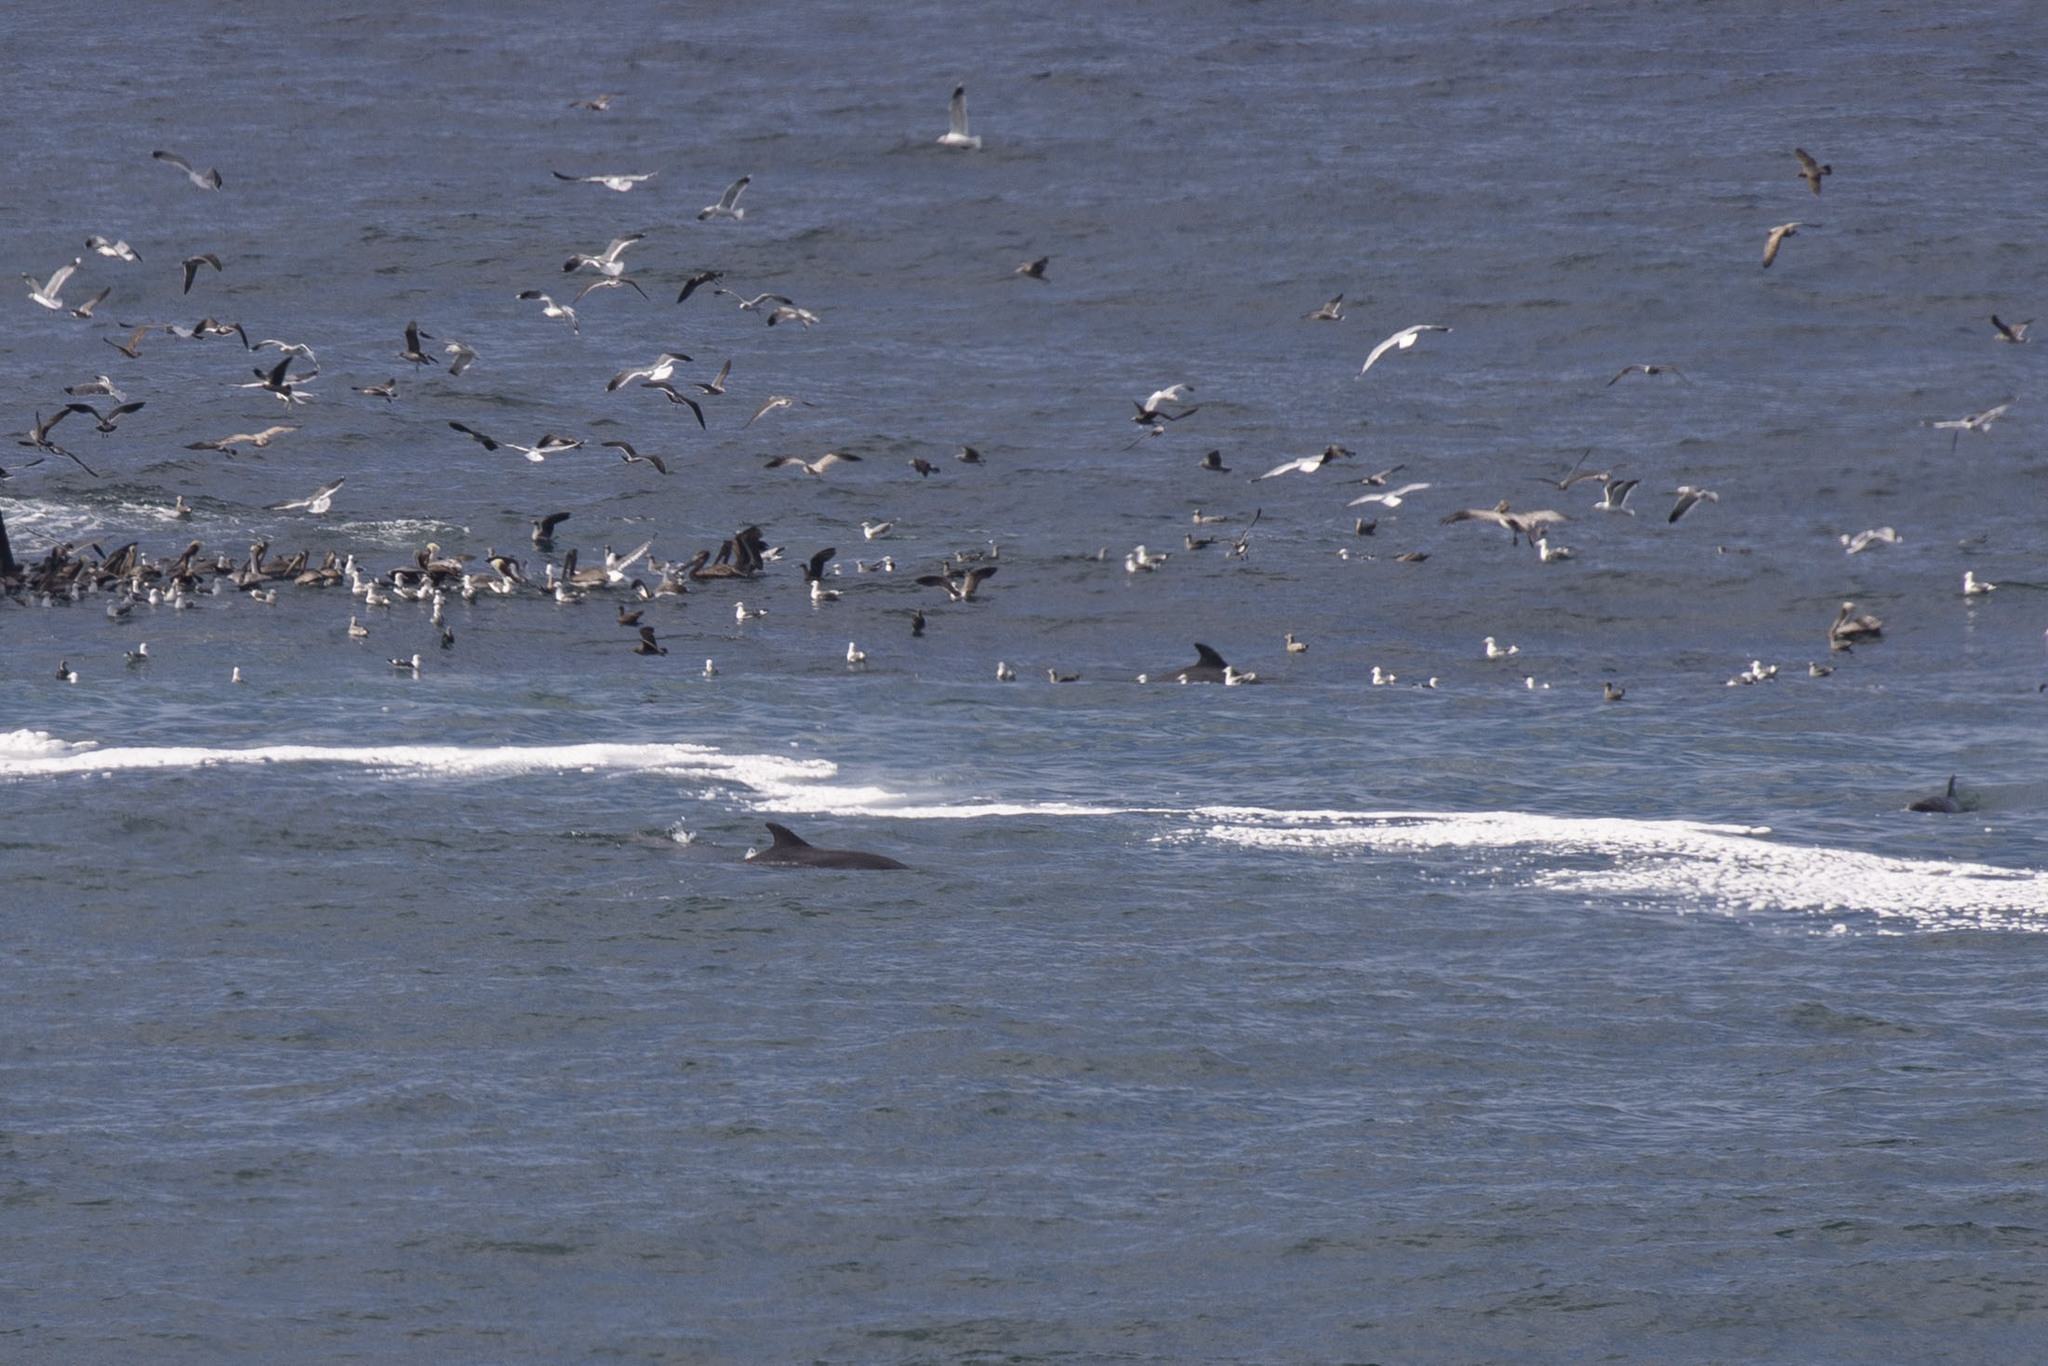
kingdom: Animalia
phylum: Chordata
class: Mammalia
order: Cetacea
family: Delphinidae
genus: Tursiops
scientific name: Tursiops truncatus
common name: Bottlenose dolphin
